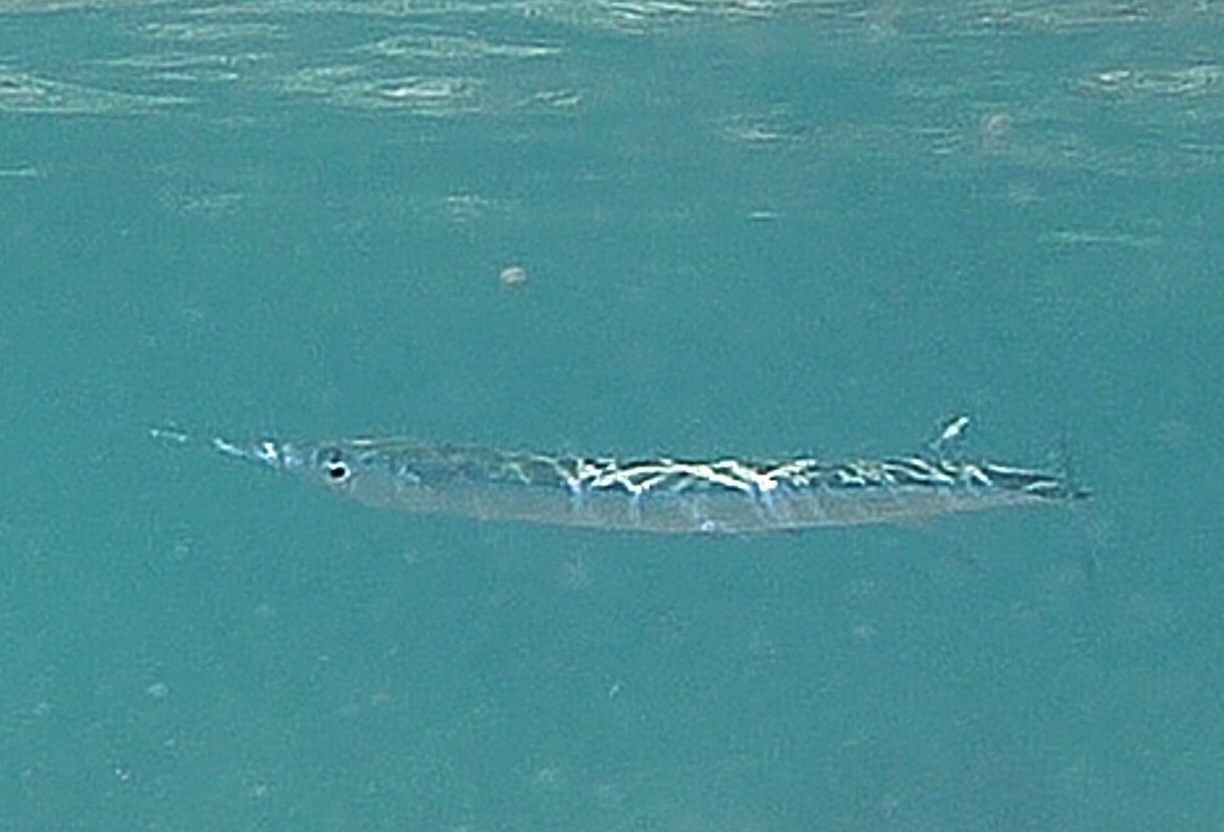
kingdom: Animalia
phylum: Chordata
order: Beloniformes
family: Belonidae
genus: Platybelone
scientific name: Platybelone argalus
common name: Keeltail needlefish
